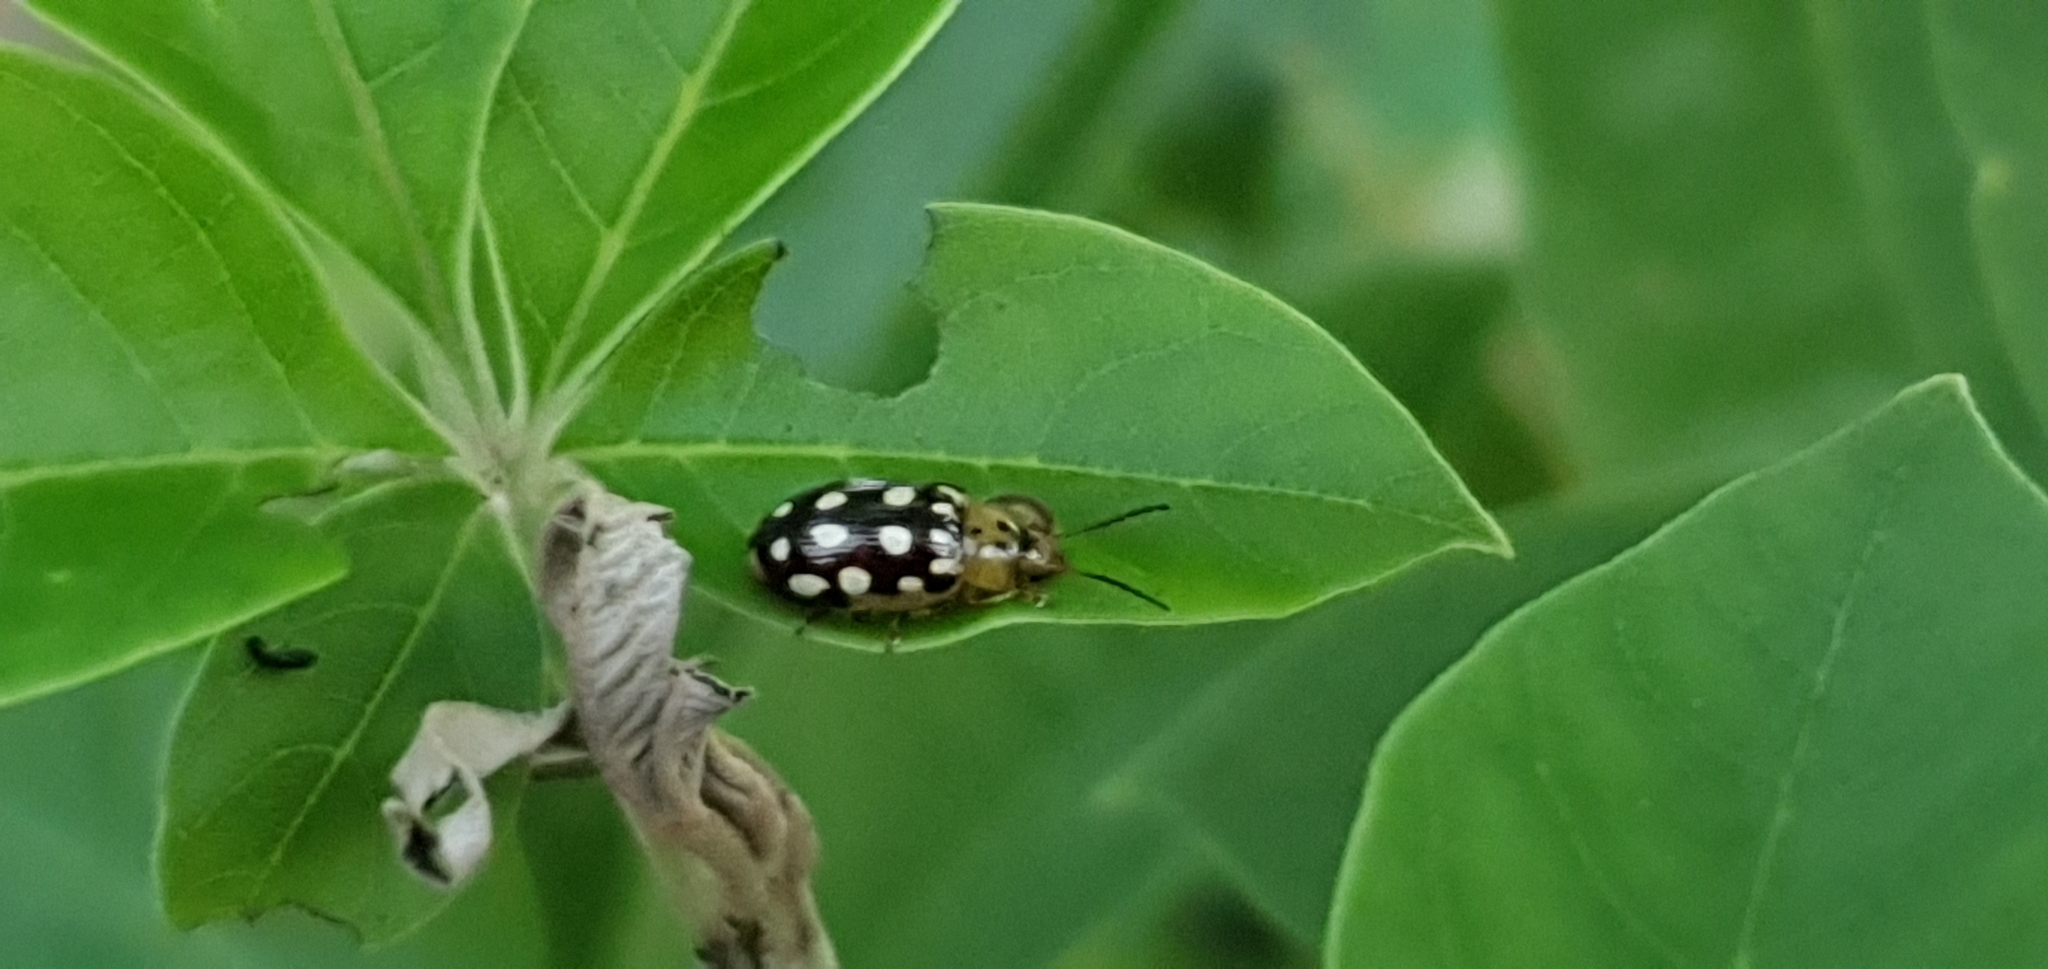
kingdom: Animalia
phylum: Arthropoda
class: Insecta
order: Coleoptera
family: Chrysomelidae
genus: Chalcolampra
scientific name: Chalcolampra octodecimguttata
